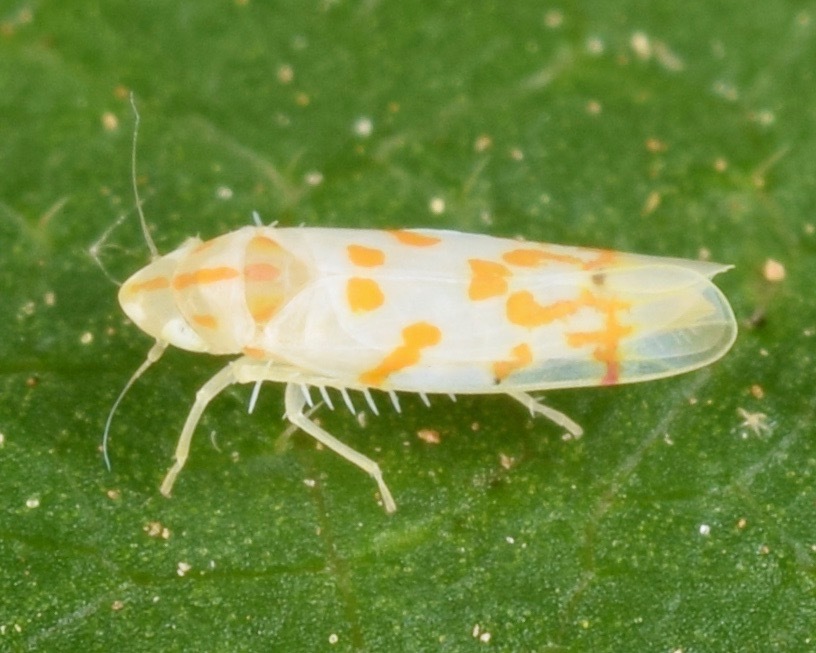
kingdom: Animalia
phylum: Arthropoda
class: Insecta
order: Hemiptera
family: Cicadellidae
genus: Eratoneura
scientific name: Eratoneura gillettei
